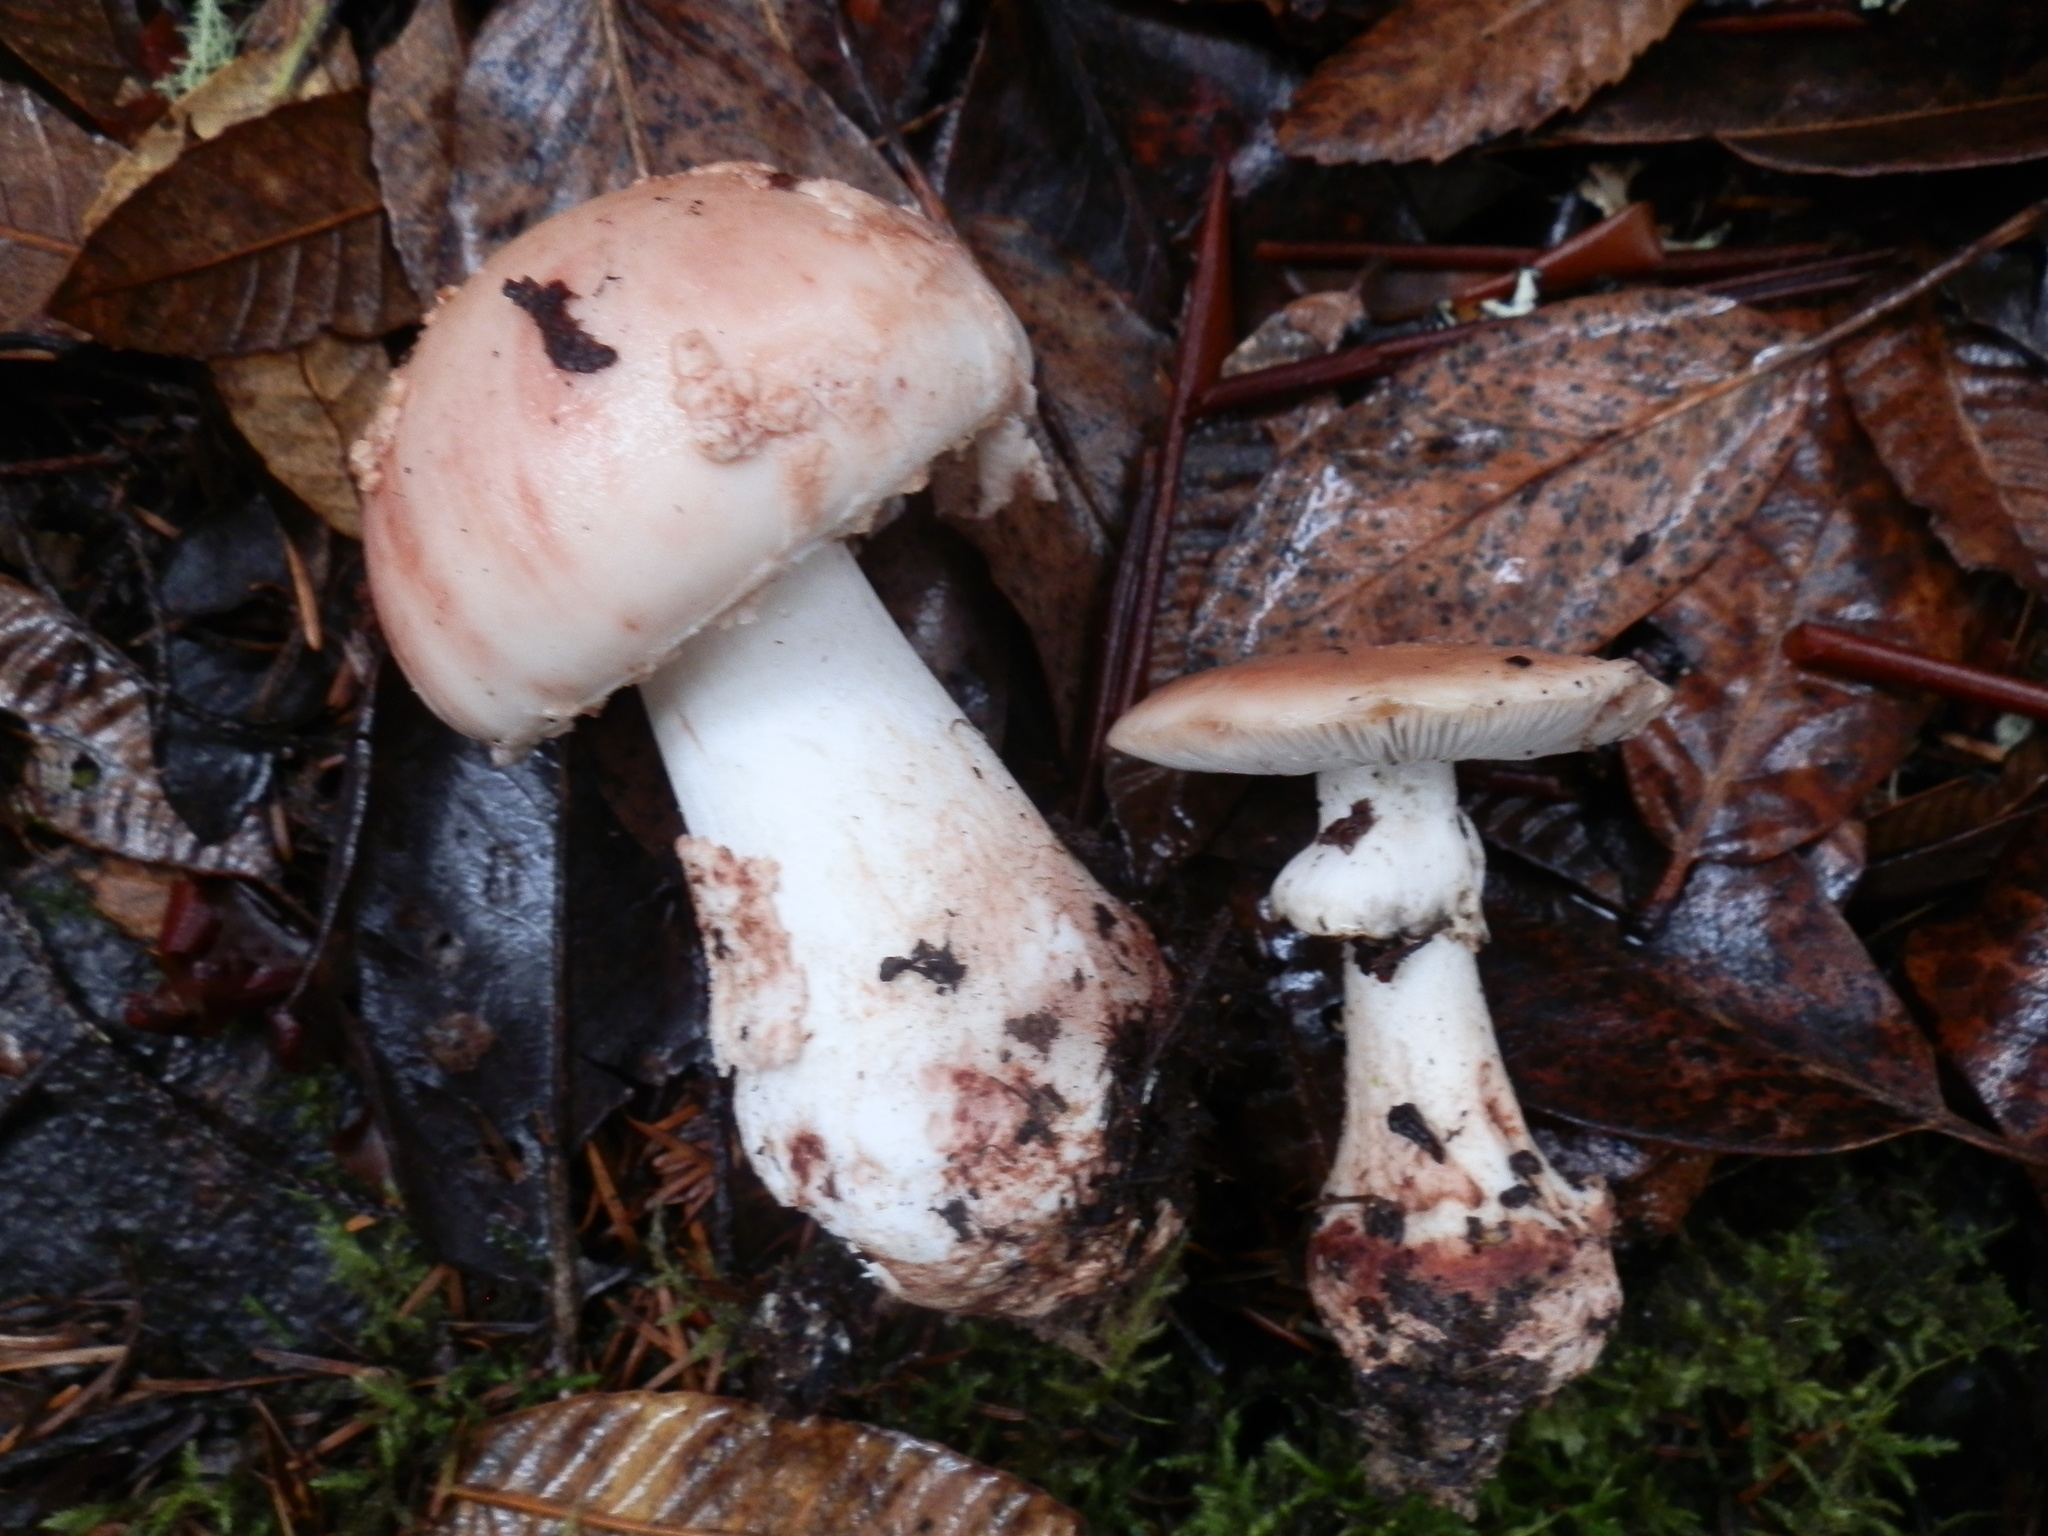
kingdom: Fungi
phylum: Basidiomycota
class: Agaricomycetes
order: Agaricales
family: Amanitaceae
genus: Amanita
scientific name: Amanita novinupta
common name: Blushing bride
